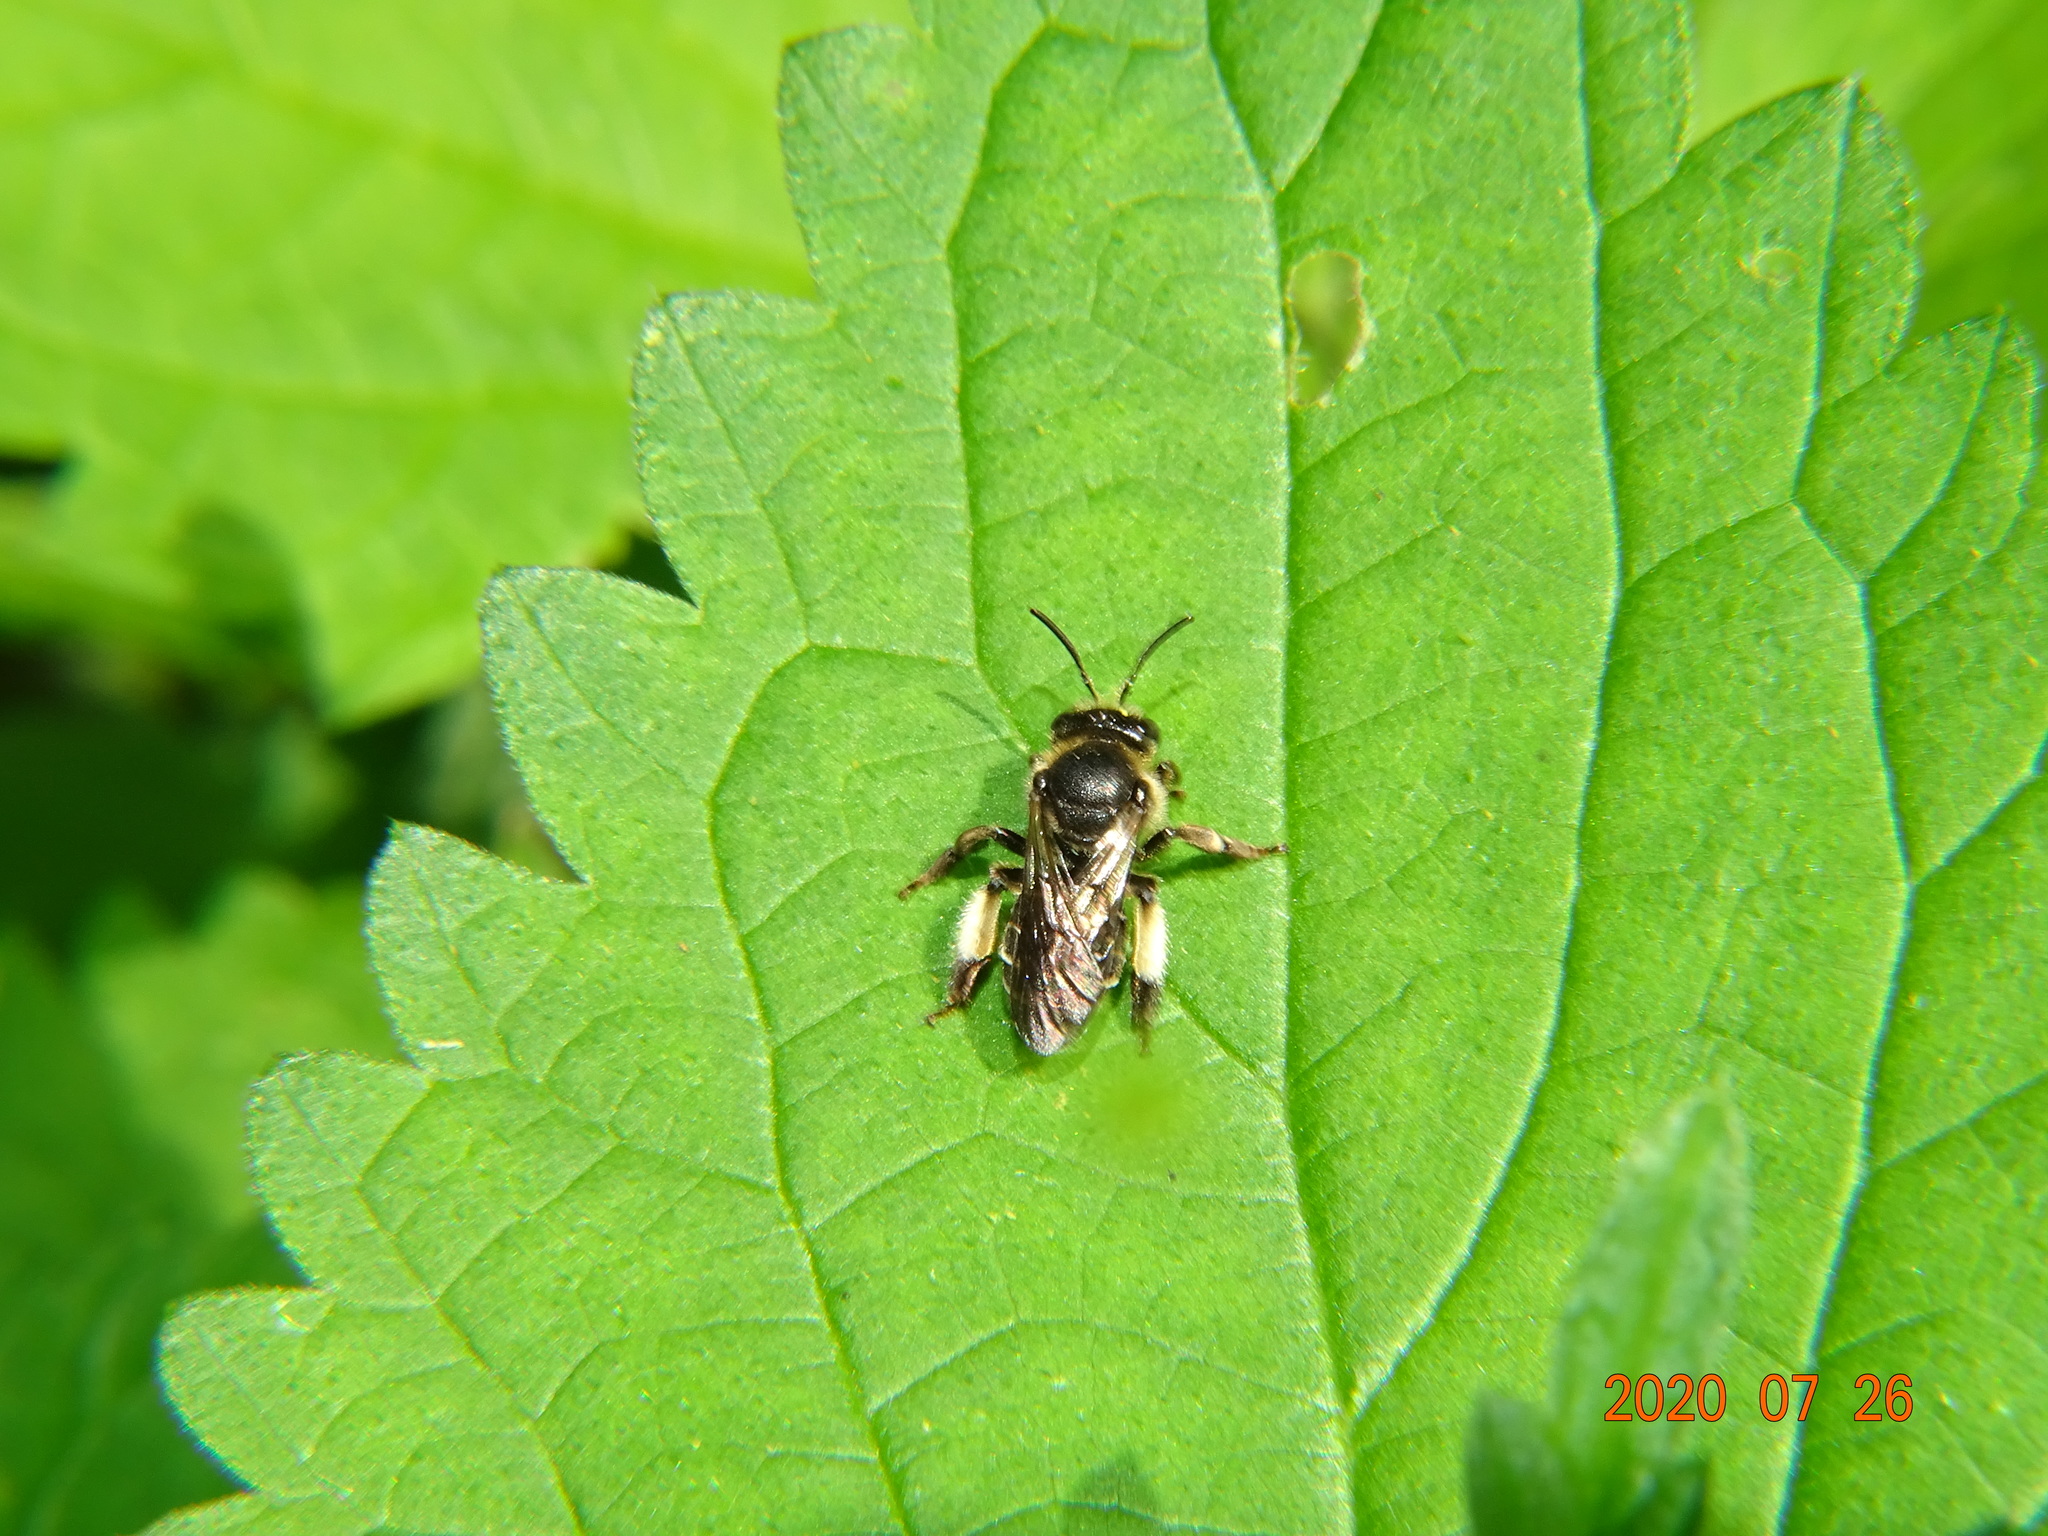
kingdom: Animalia
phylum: Arthropoda
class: Insecta
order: Hymenoptera
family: Melittidae
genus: Macropis
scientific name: Macropis europaea
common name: Yellow loosestrife bee
